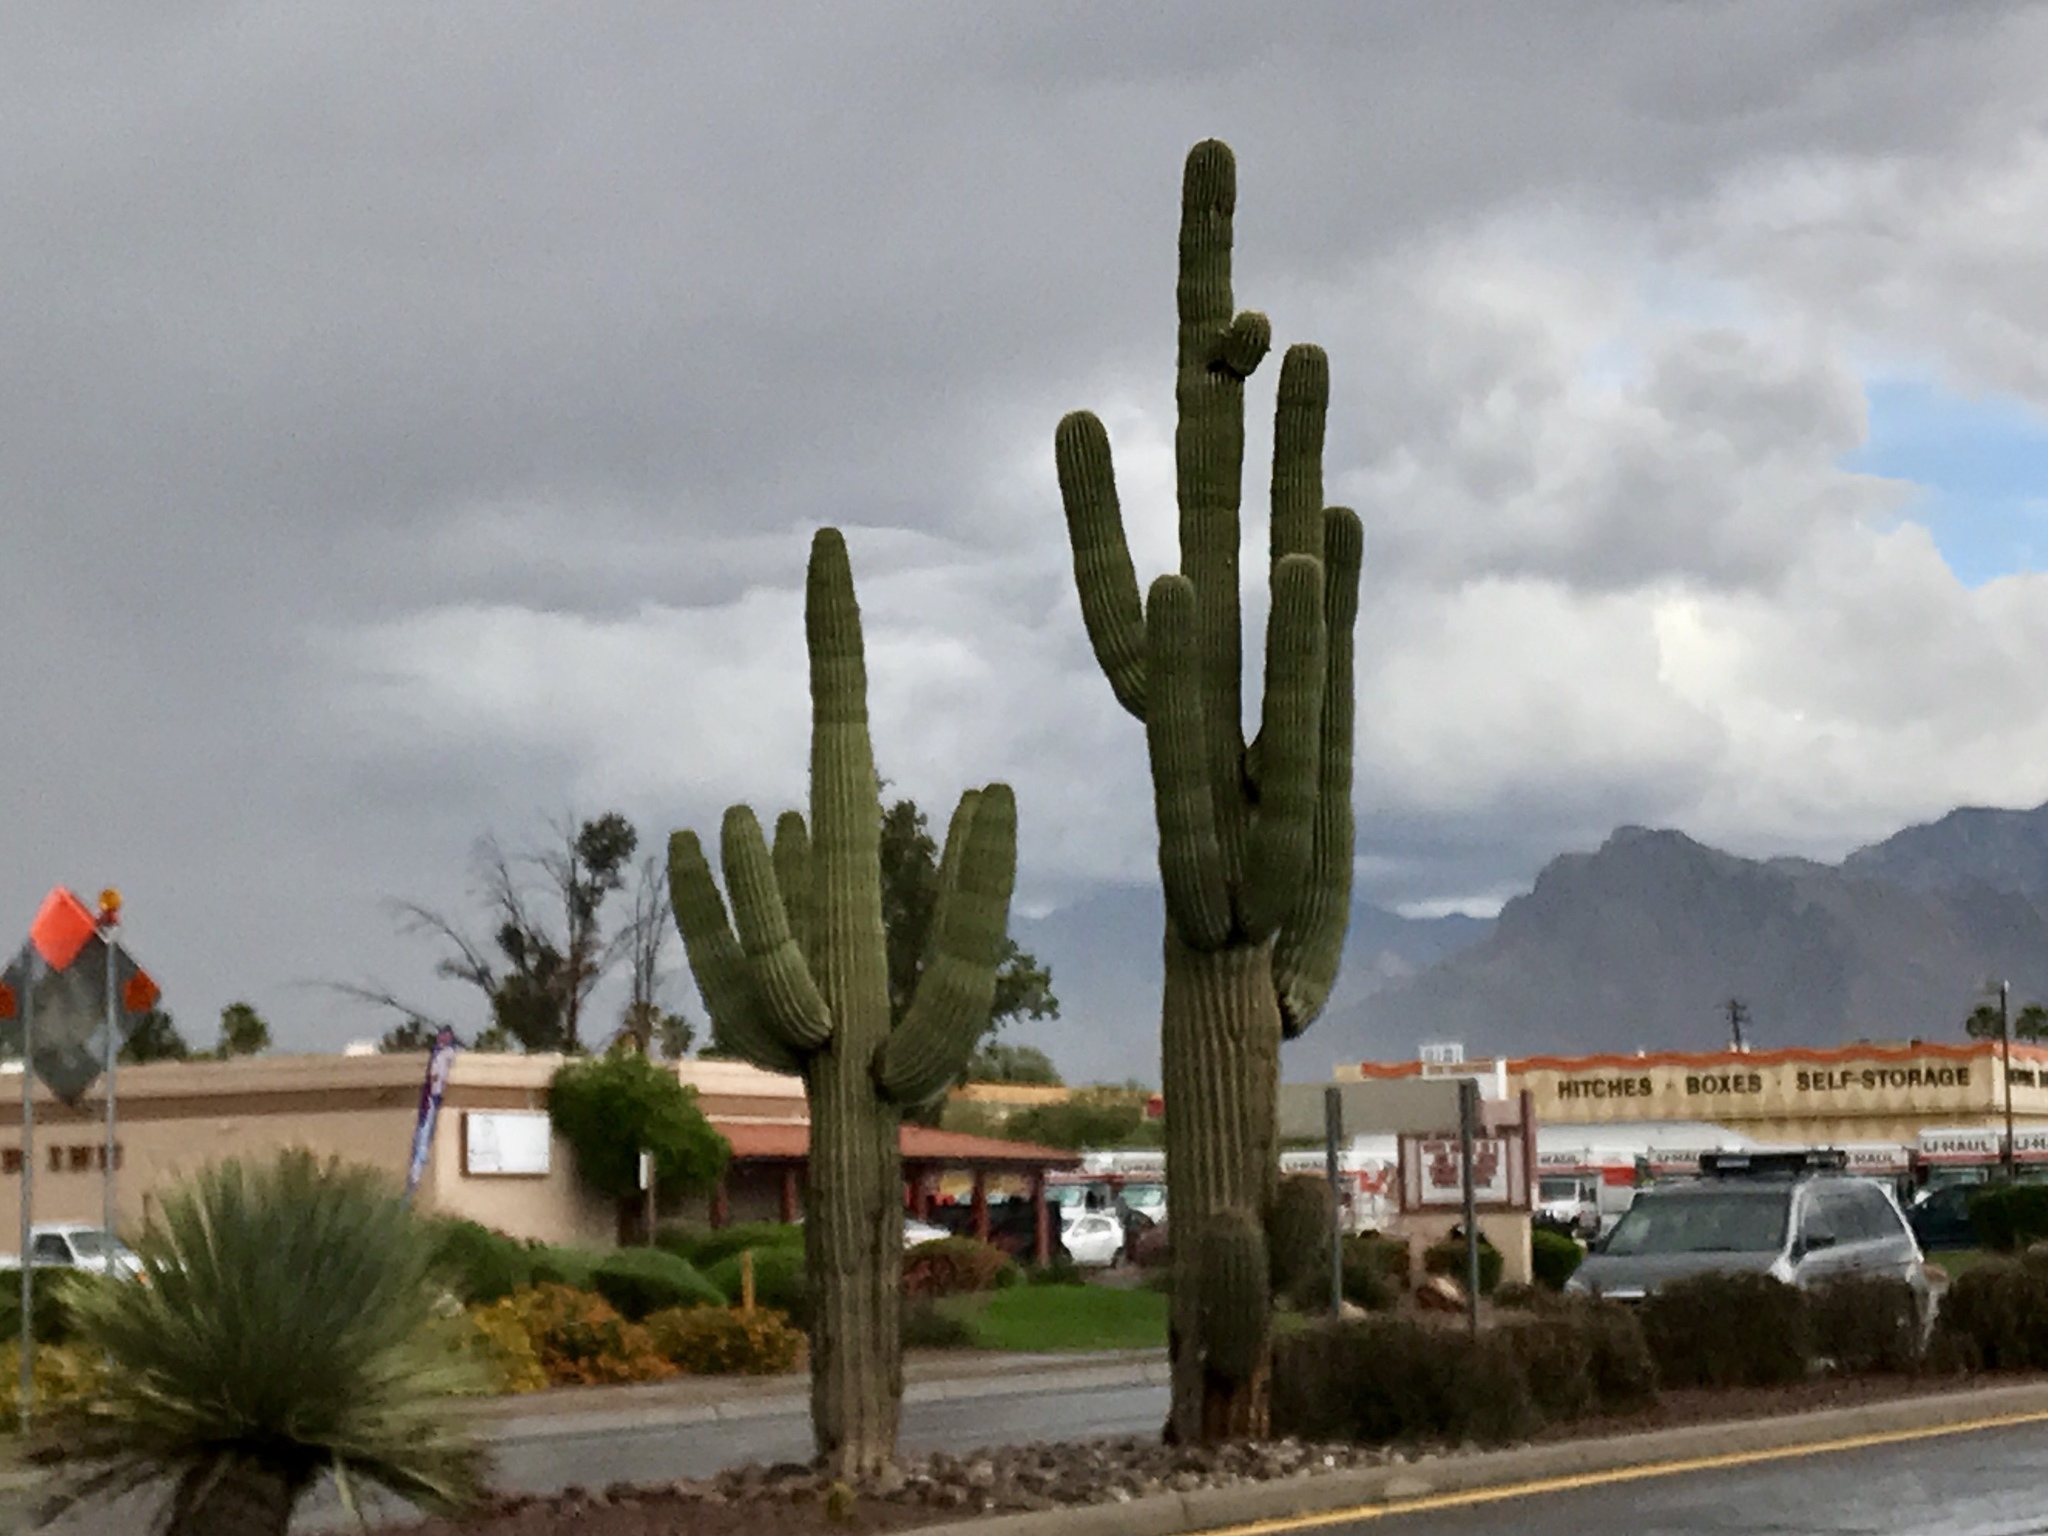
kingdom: Plantae
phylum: Tracheophyta
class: Magnoliopsida
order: Caryophyllales
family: Cactaceae
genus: Carnegiea
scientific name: Carnegiea gigantea
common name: Saguaro
